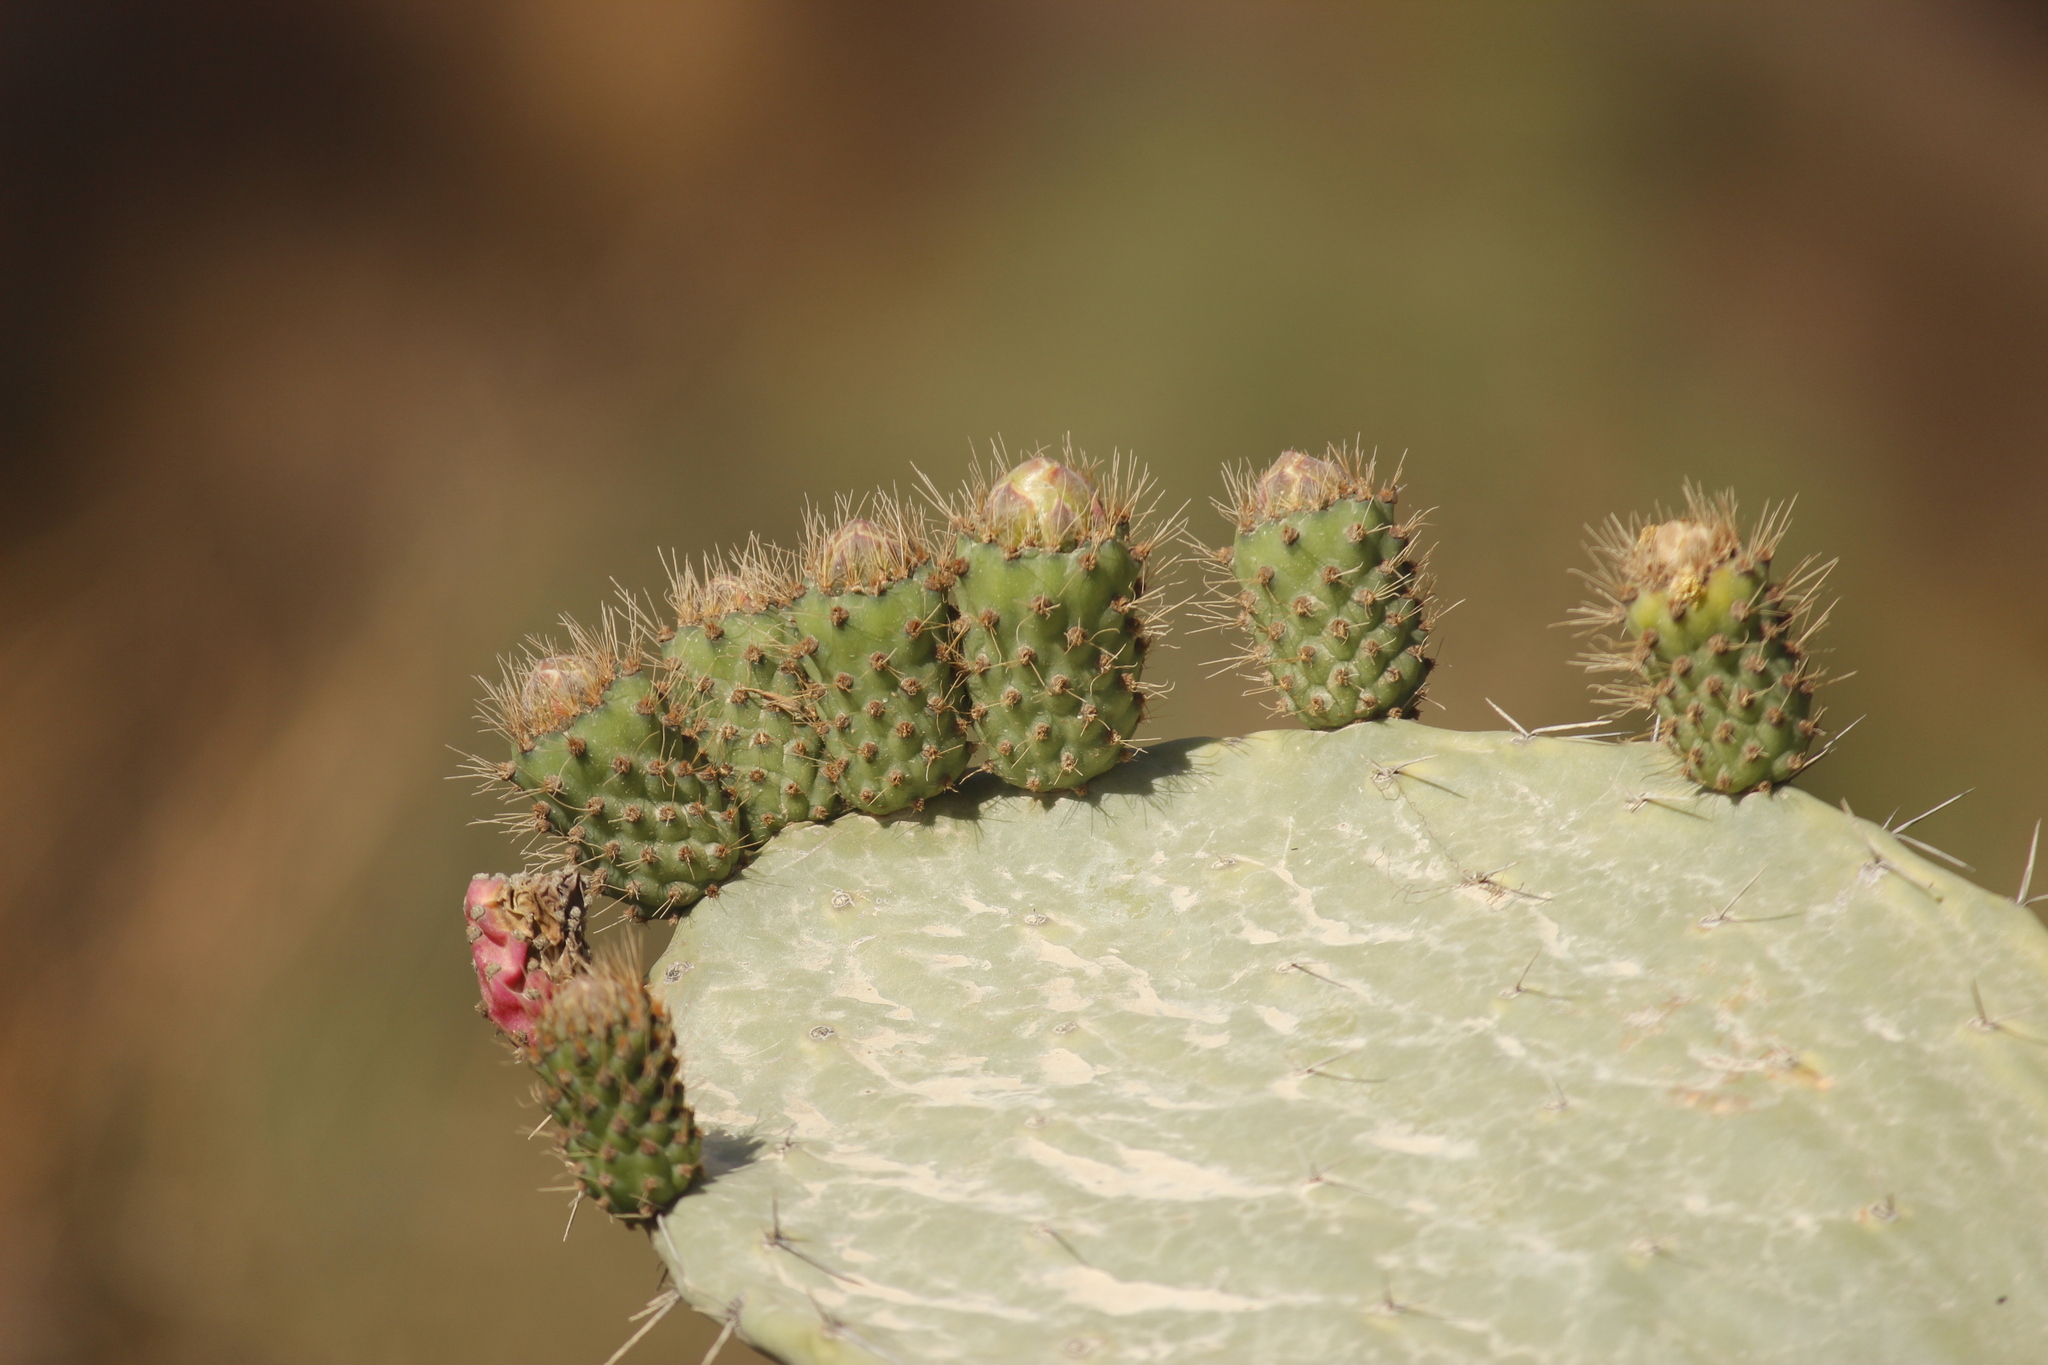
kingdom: Plantae
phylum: Tracheophyta
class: Magnoliopsida
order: Caryophyllales
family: Cactaceae
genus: Opuntia
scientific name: Opuntia ficus-indica
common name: Barbary fig
